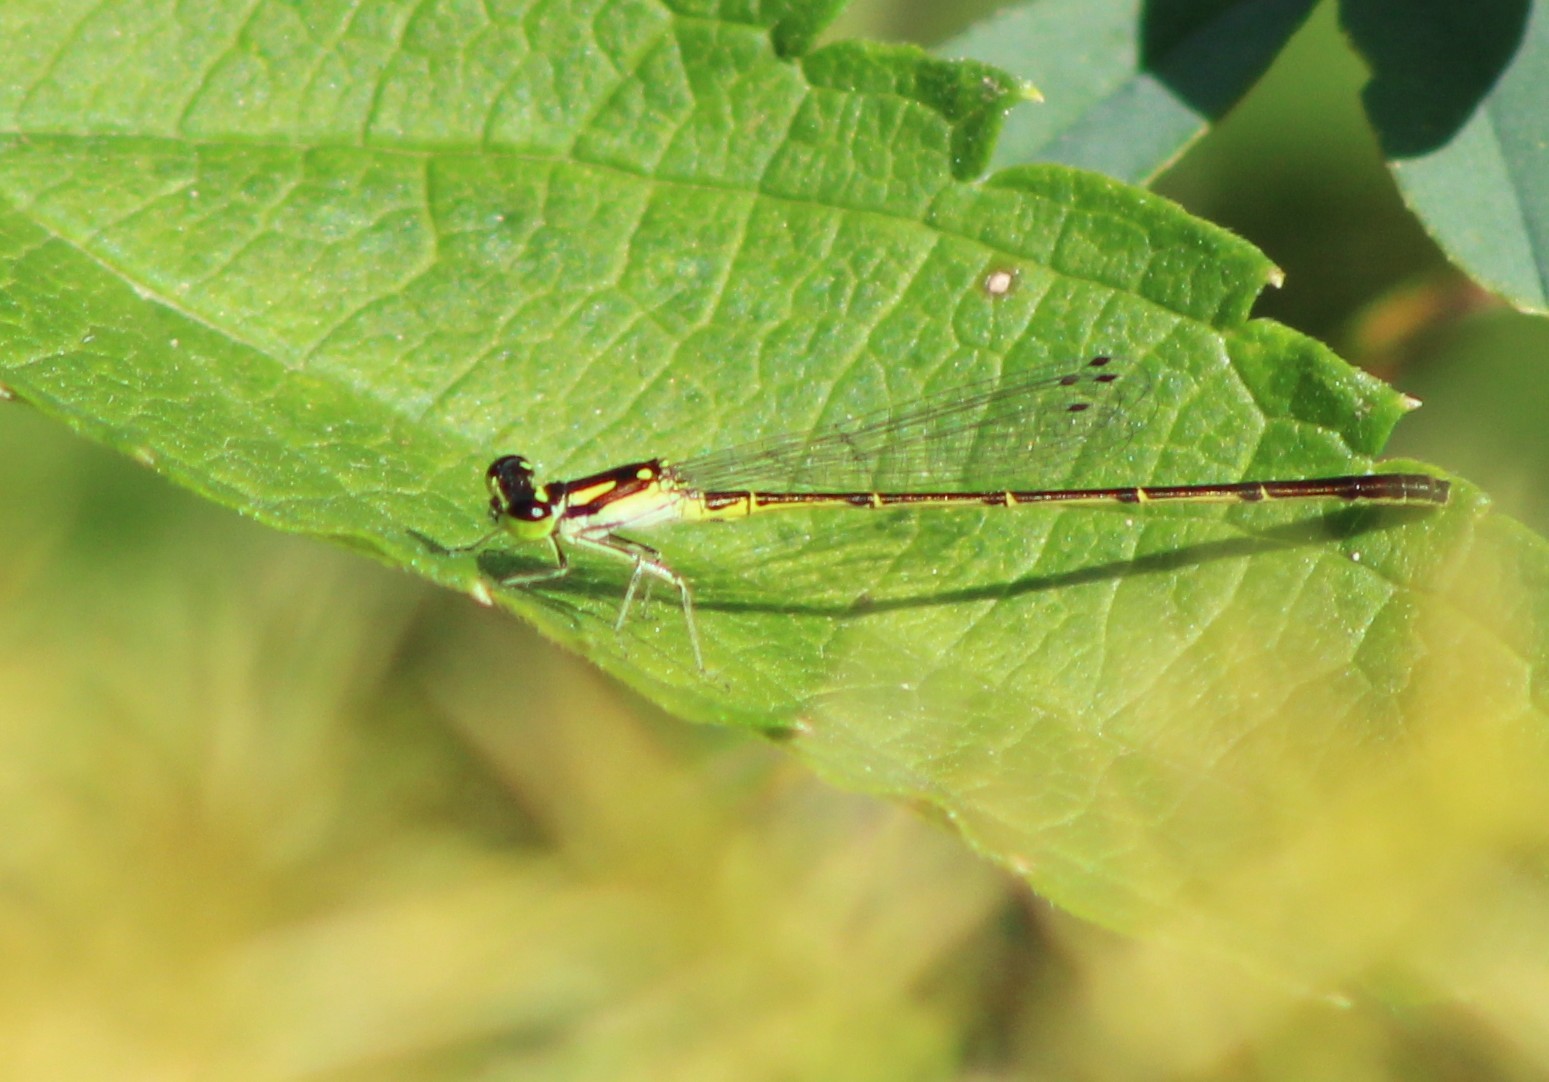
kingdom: Animalia
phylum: Arthropoda
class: Insecta
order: Odonata
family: Coenagrionidae
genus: Ischnura
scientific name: Ischnura posita
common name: Fragile forktail
